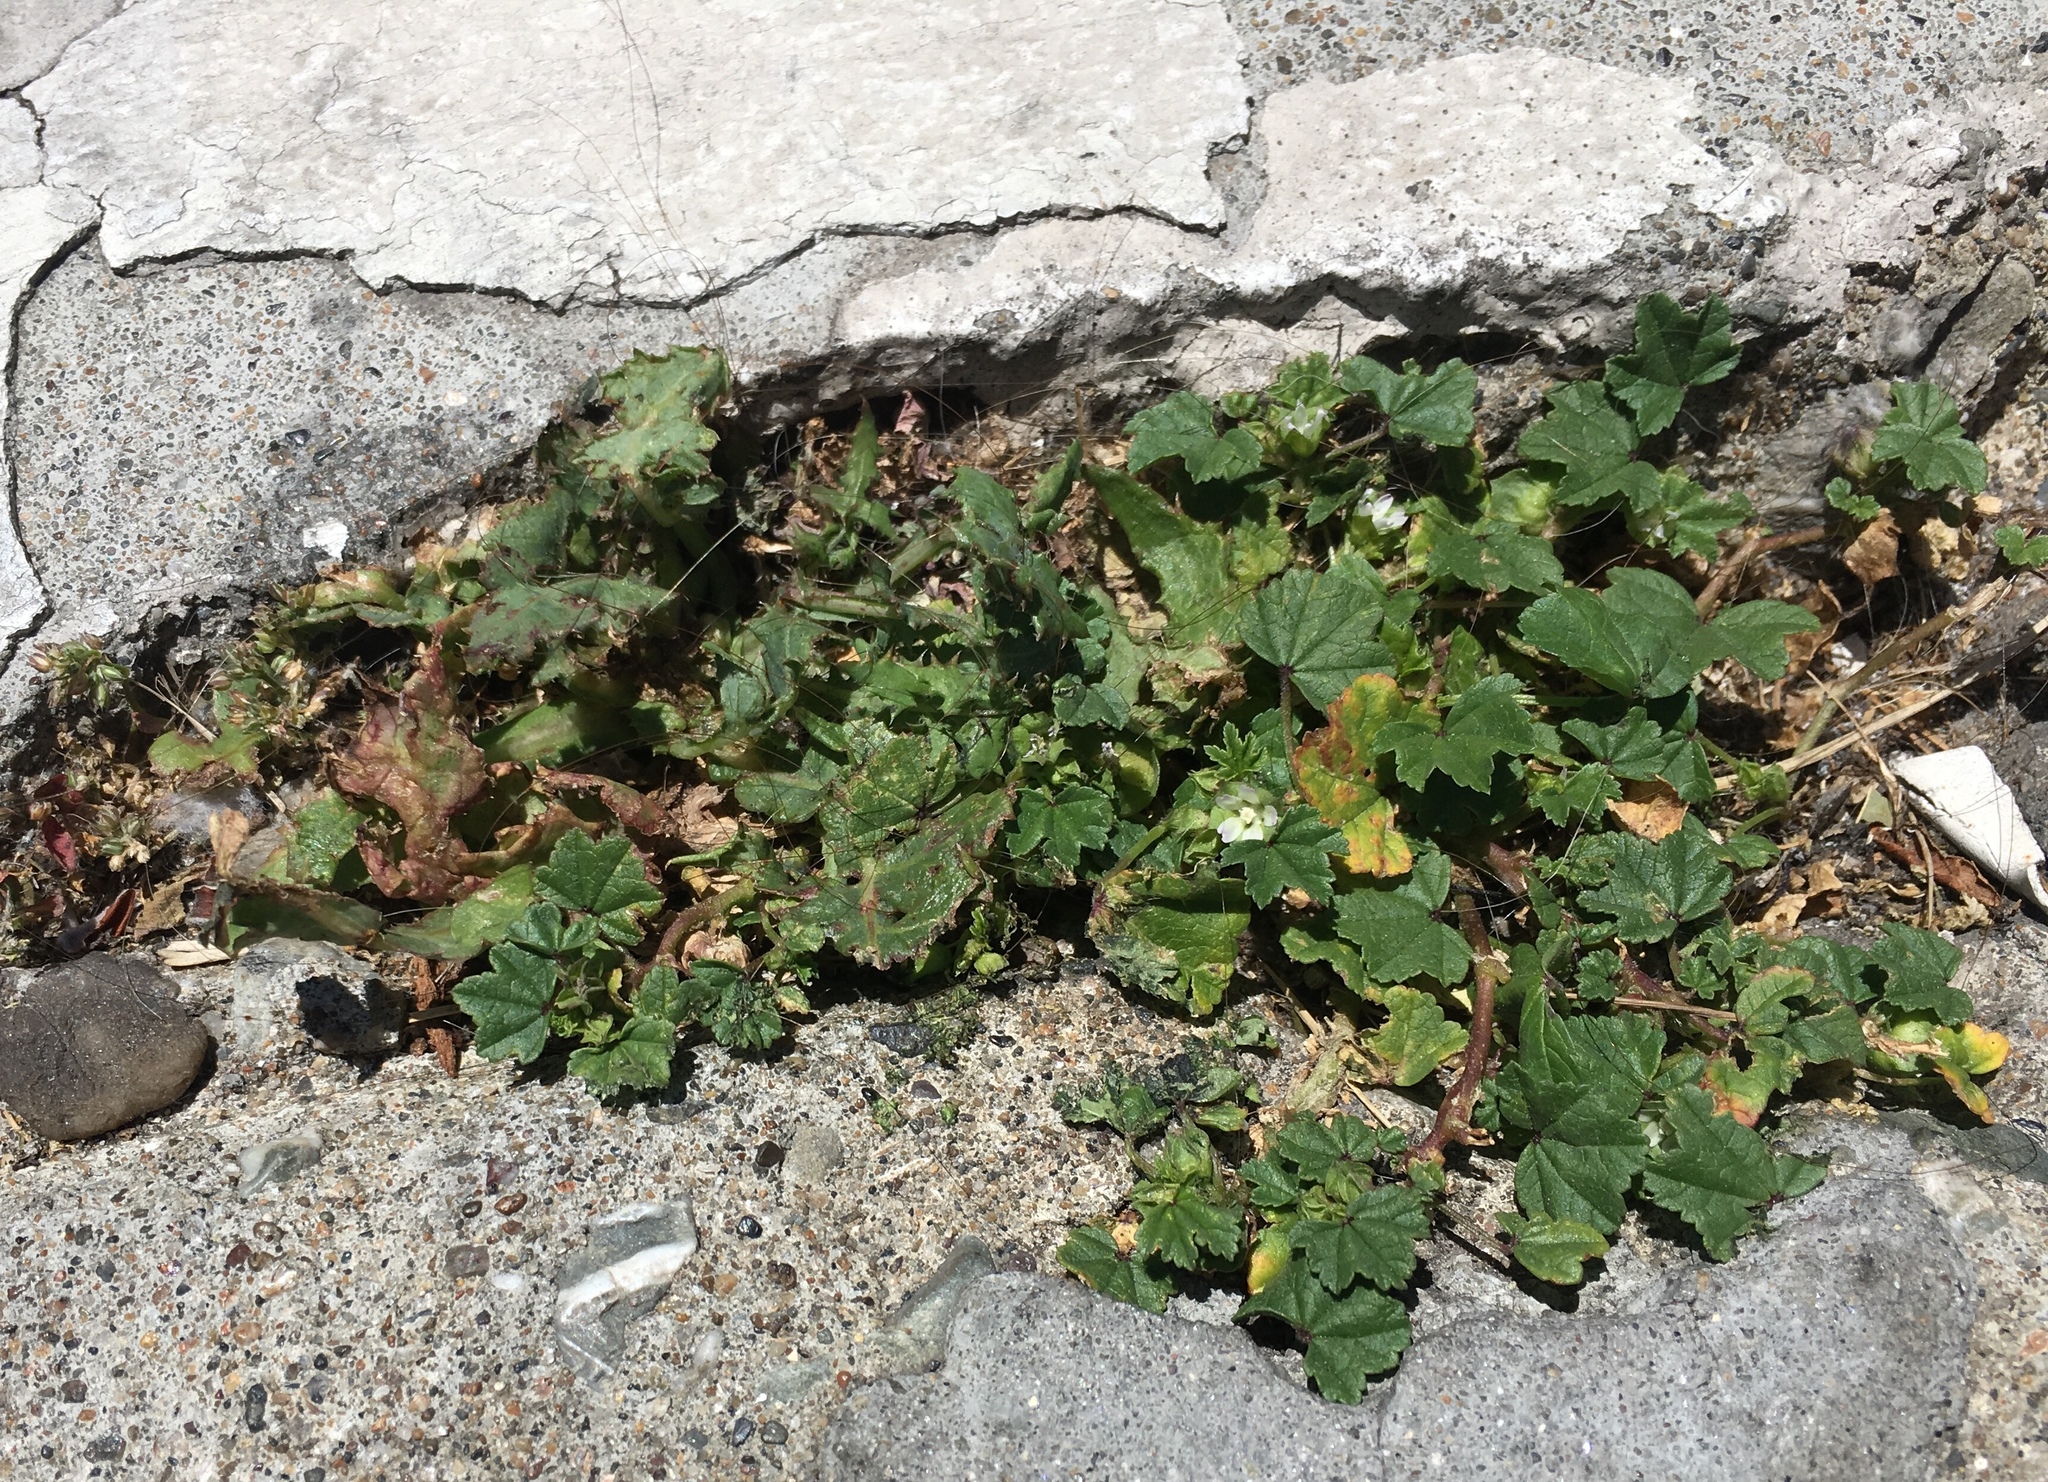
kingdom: Plantae
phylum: Tracheophyta
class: Magnoliopsida
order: Malvales
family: Malvaceae
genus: Malva
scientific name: Malva parviflora
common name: Least mallow
